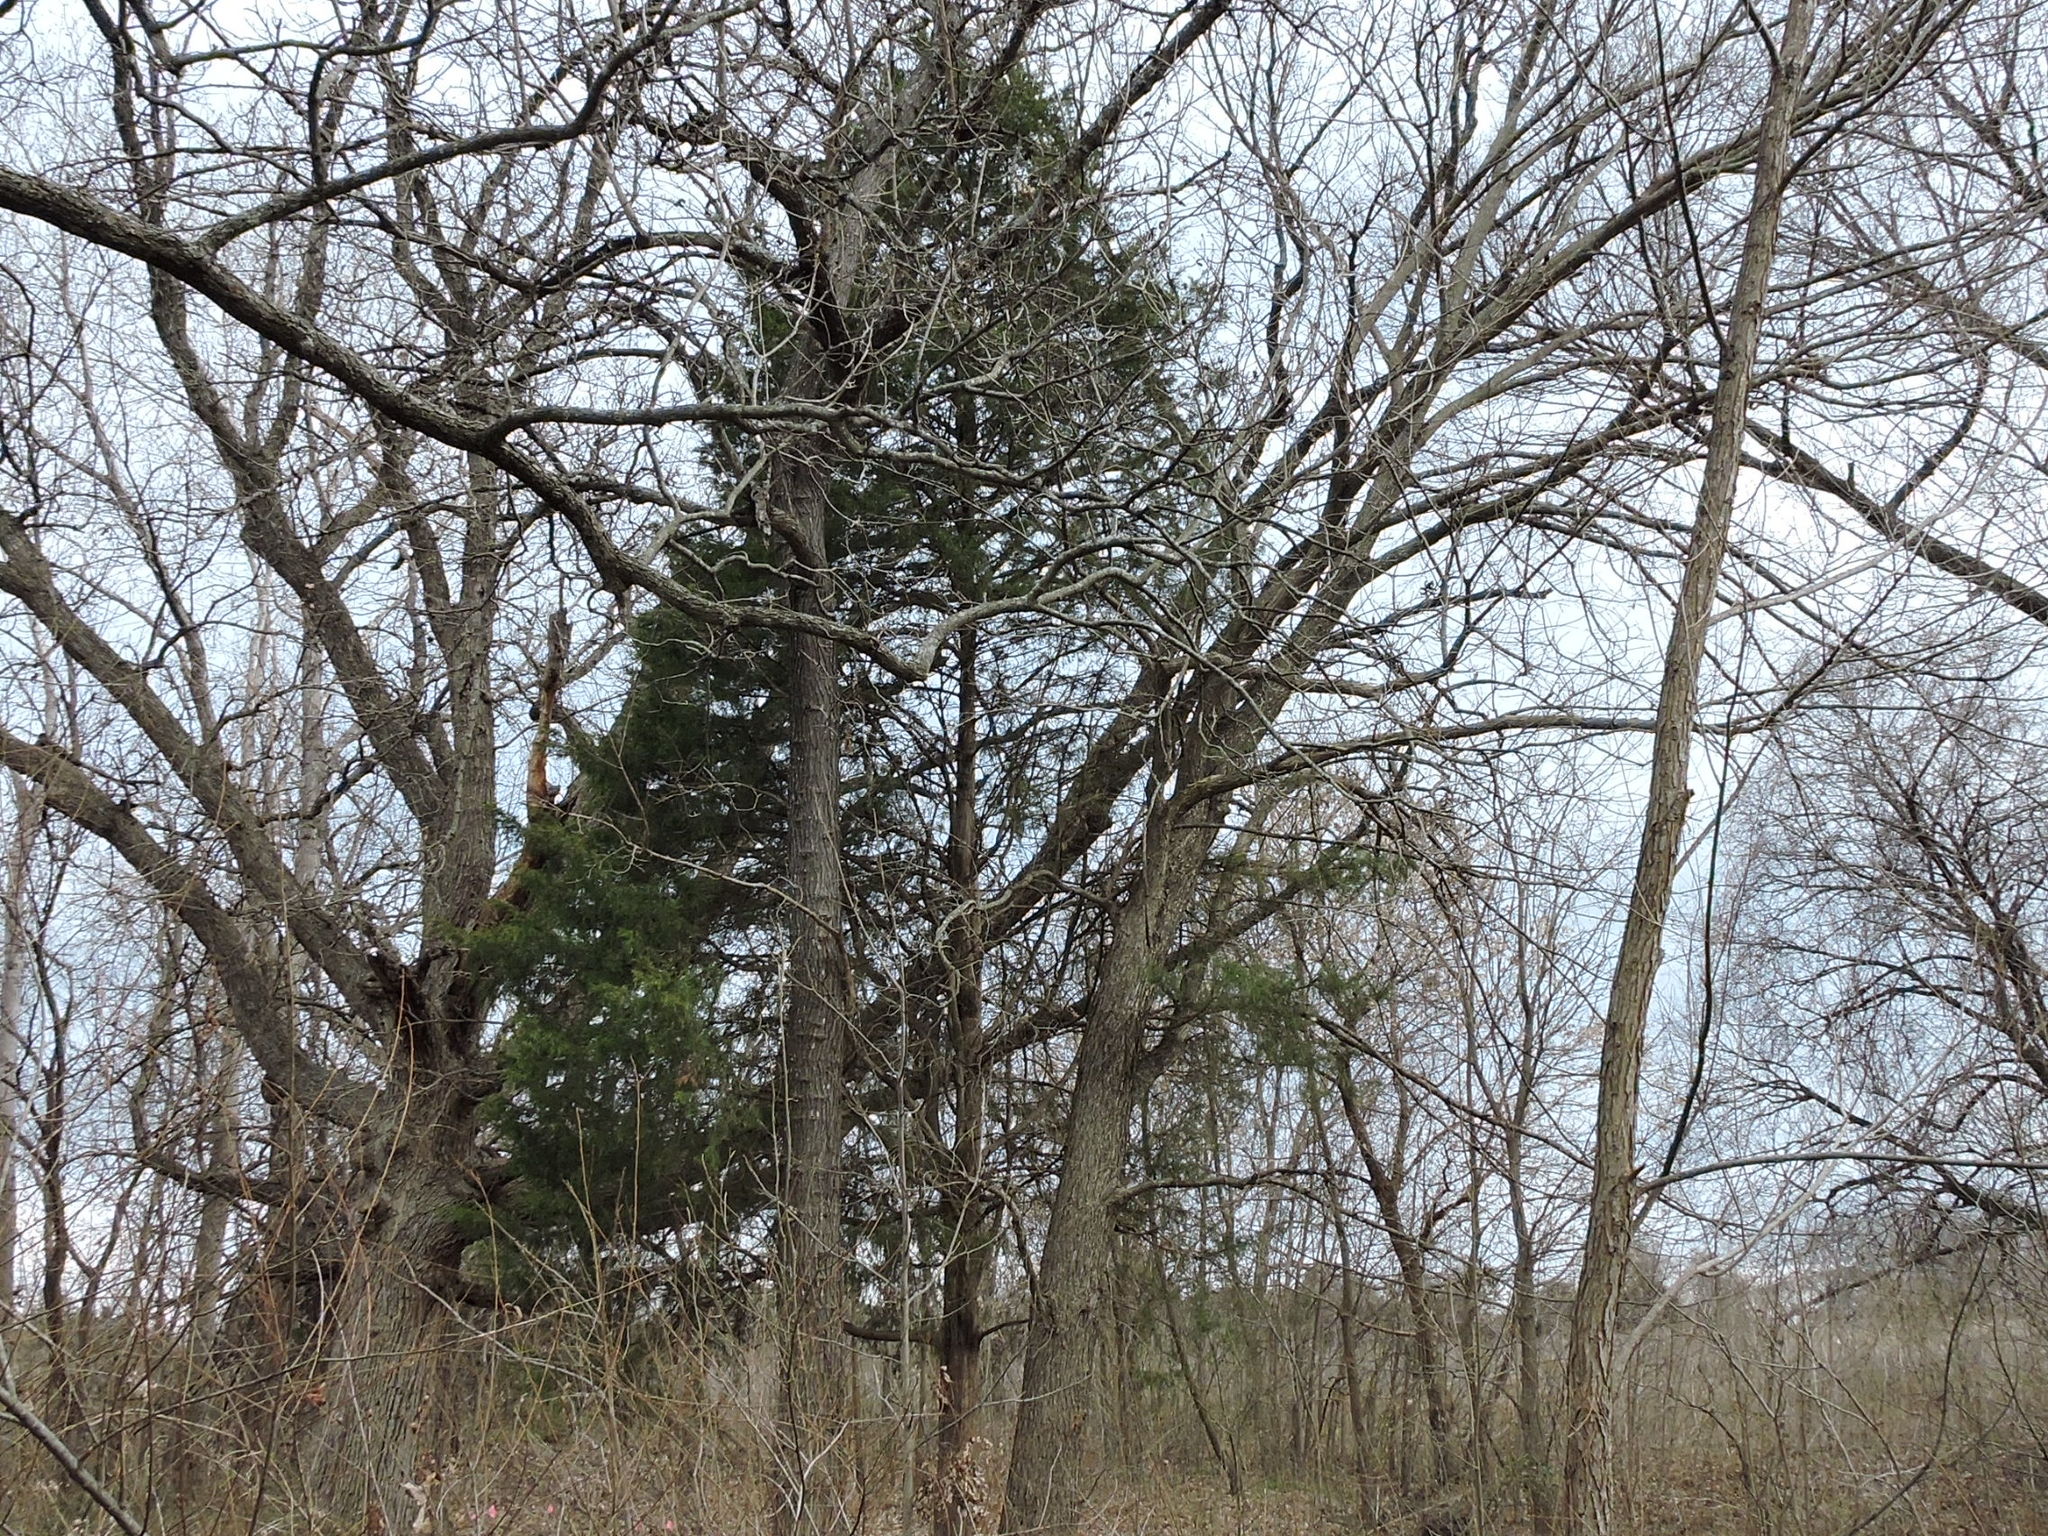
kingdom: Plantae
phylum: Tracheophyta
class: Pinopsida
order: Pinales
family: Cupressaceae
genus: Juniperus
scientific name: Juniperus virginiana
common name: Red juniper
